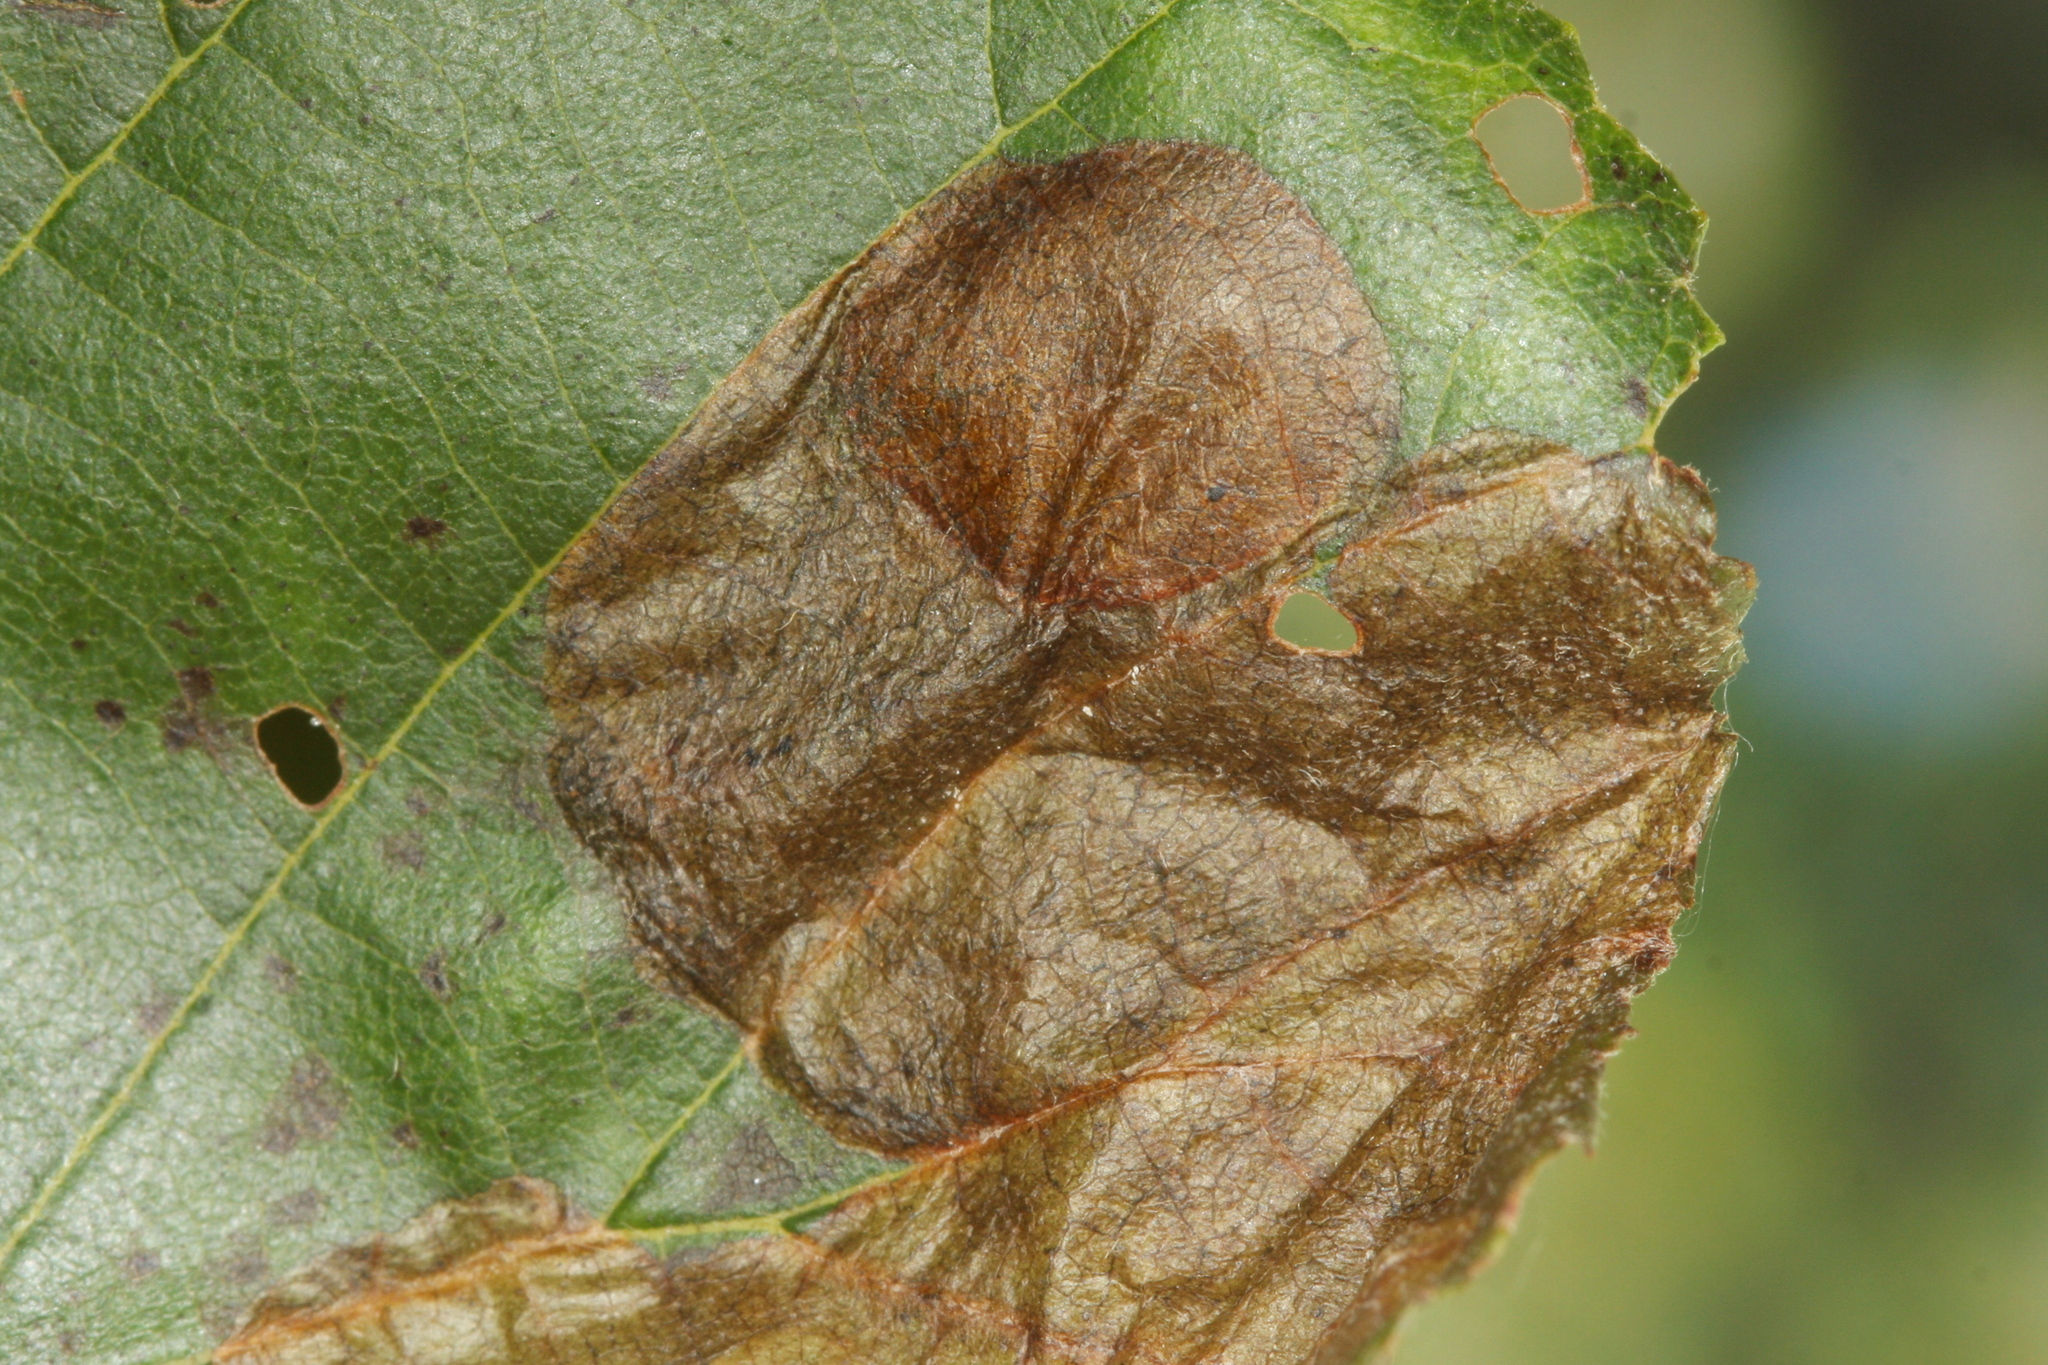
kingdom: Animalia
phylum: Arthropoda
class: Insecta
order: Hymenoptera
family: Tenthredinidae
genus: Heterarthrus
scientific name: Heterarthrus vagans
